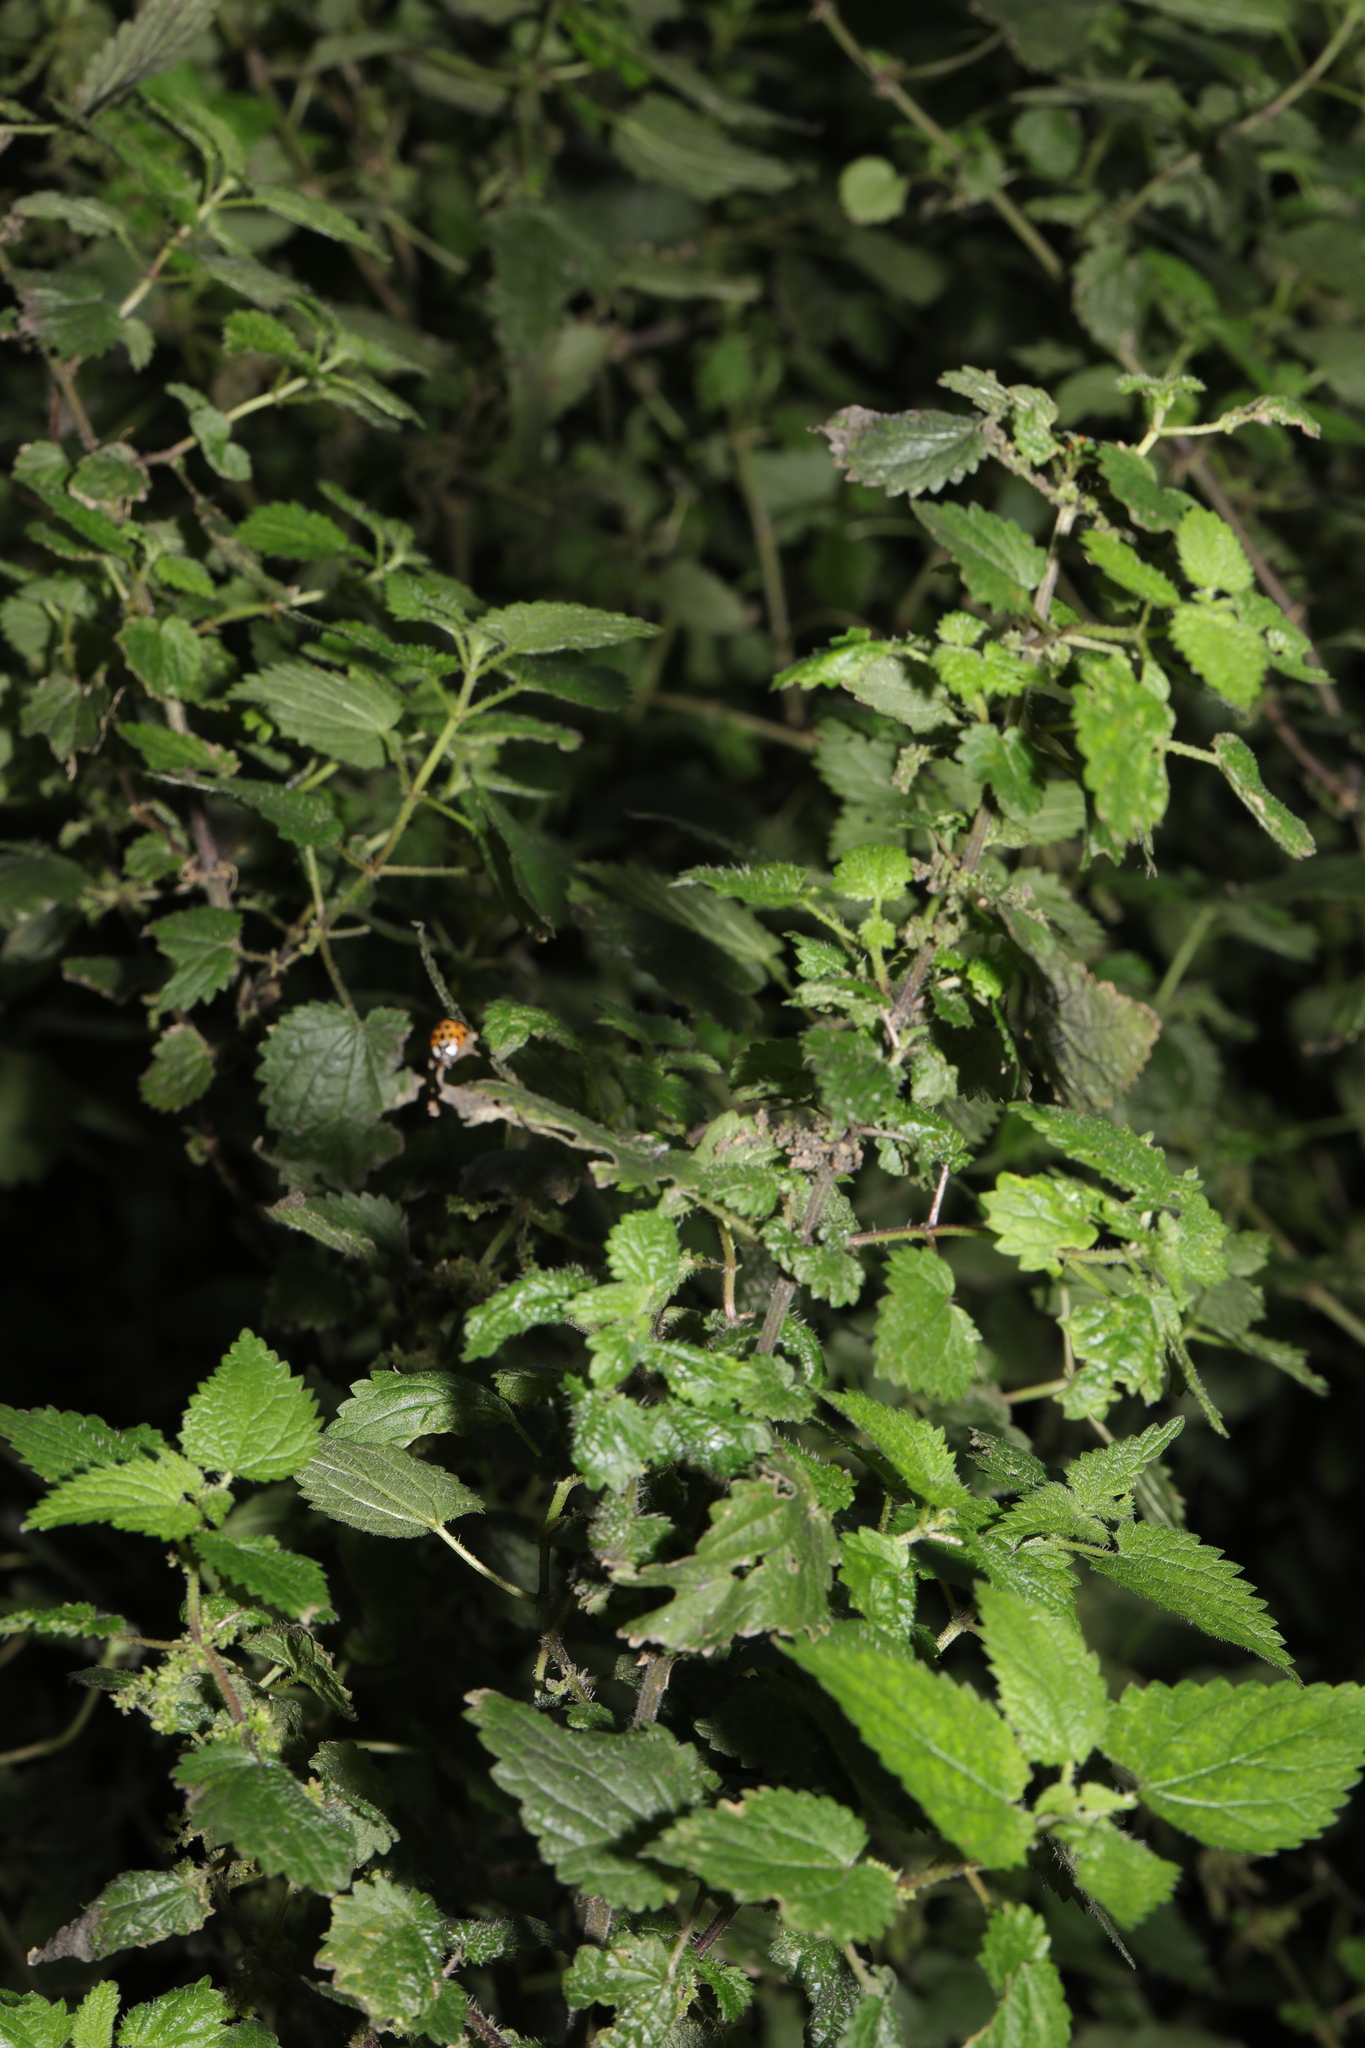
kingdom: Plantae
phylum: Tracheophyta
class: Magnoliopsida
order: Rosales
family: Urticaceae
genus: Urtica
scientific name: Urtica dioica
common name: Common nettle
